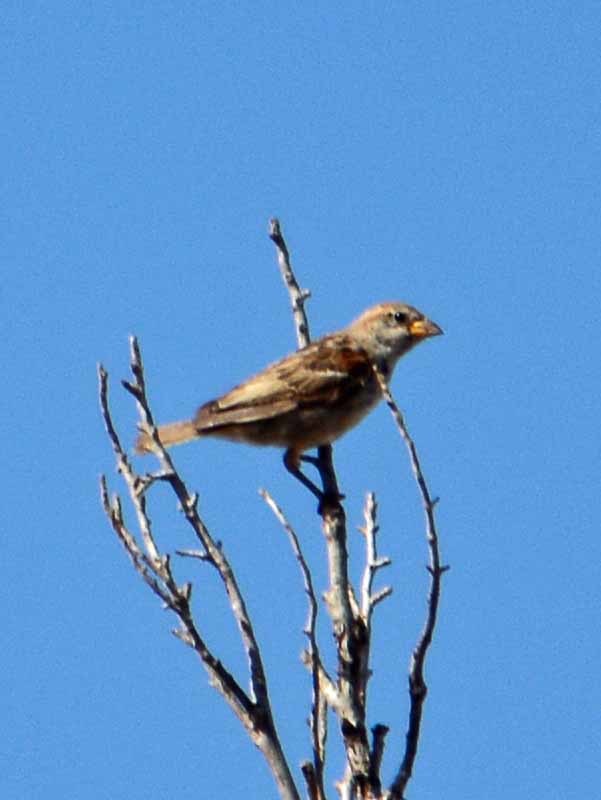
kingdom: Animalia
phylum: Chordata
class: Aves
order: Passeriformes
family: Passeridae
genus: Passer
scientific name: Passer domesticus
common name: House sparrow
